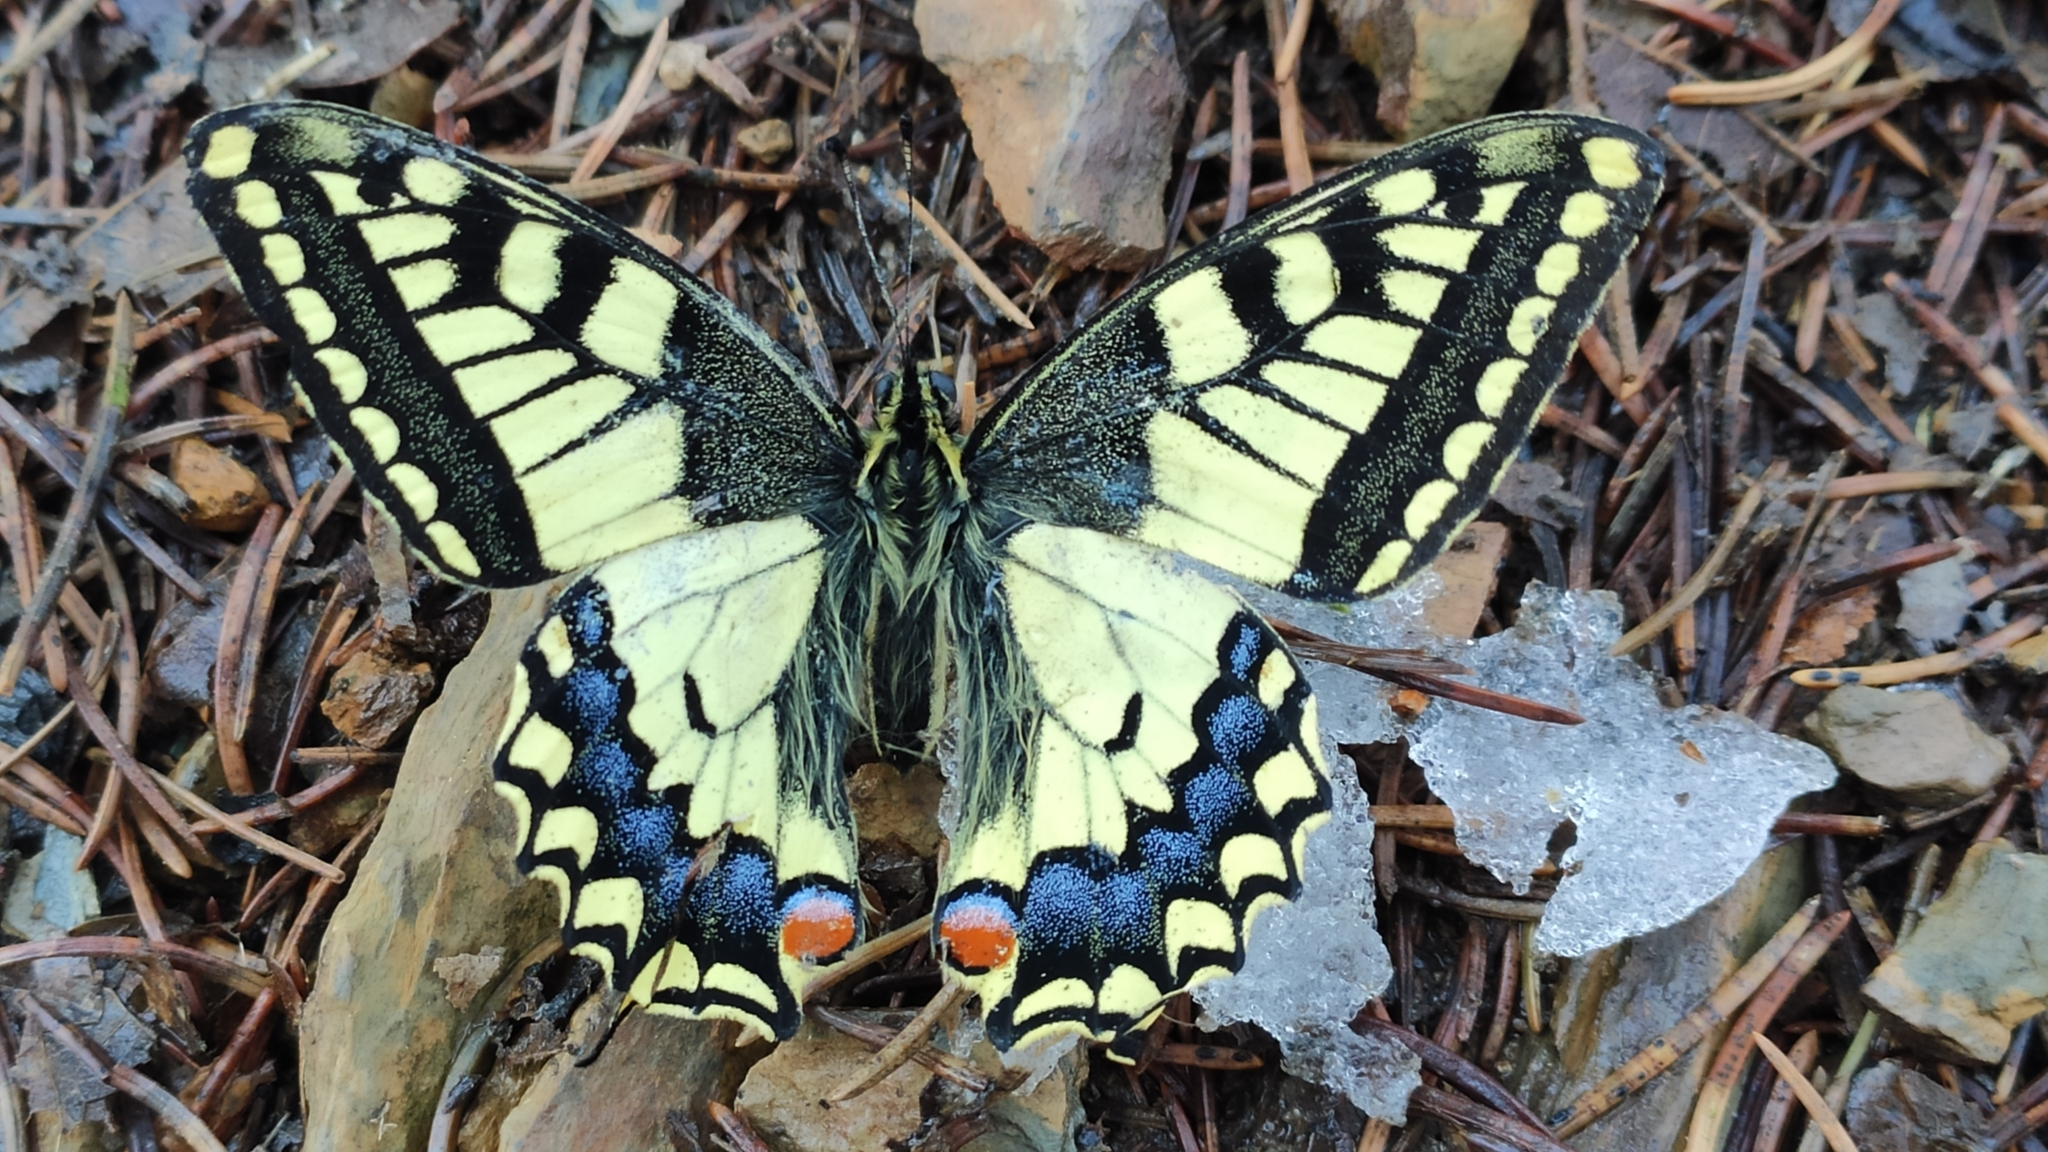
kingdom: Animalia
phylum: Arthropoda
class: Insecta
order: Lepidoptera
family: Papilionidae
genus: Papilio
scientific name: Papilio machaon
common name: Swallowtail
